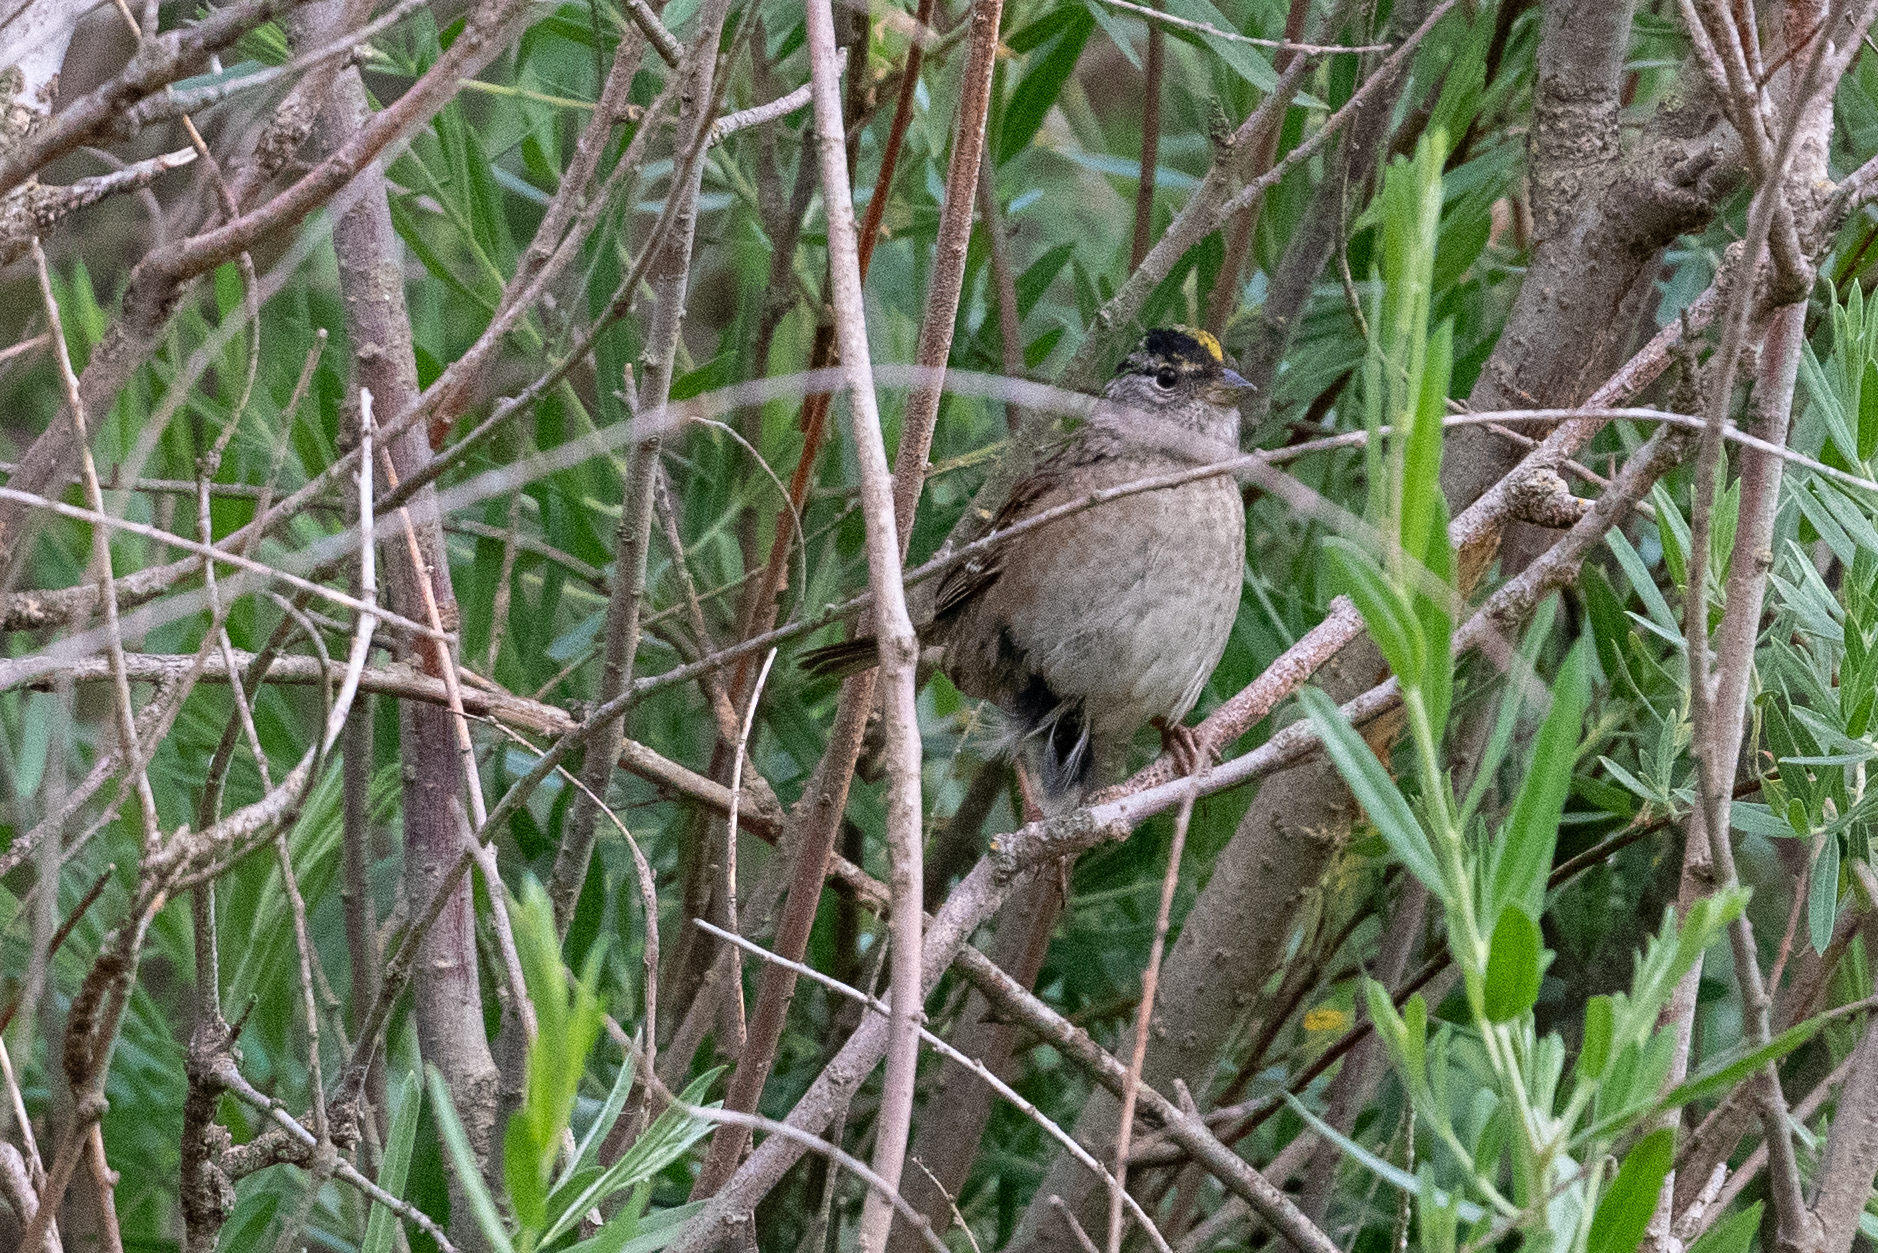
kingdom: Animalia
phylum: Chordata
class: Aves
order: Passeriformes
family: Passerellidae
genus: Zonotrichia
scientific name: Zonotrichia atricapilla
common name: Golden-crowned sparrow
